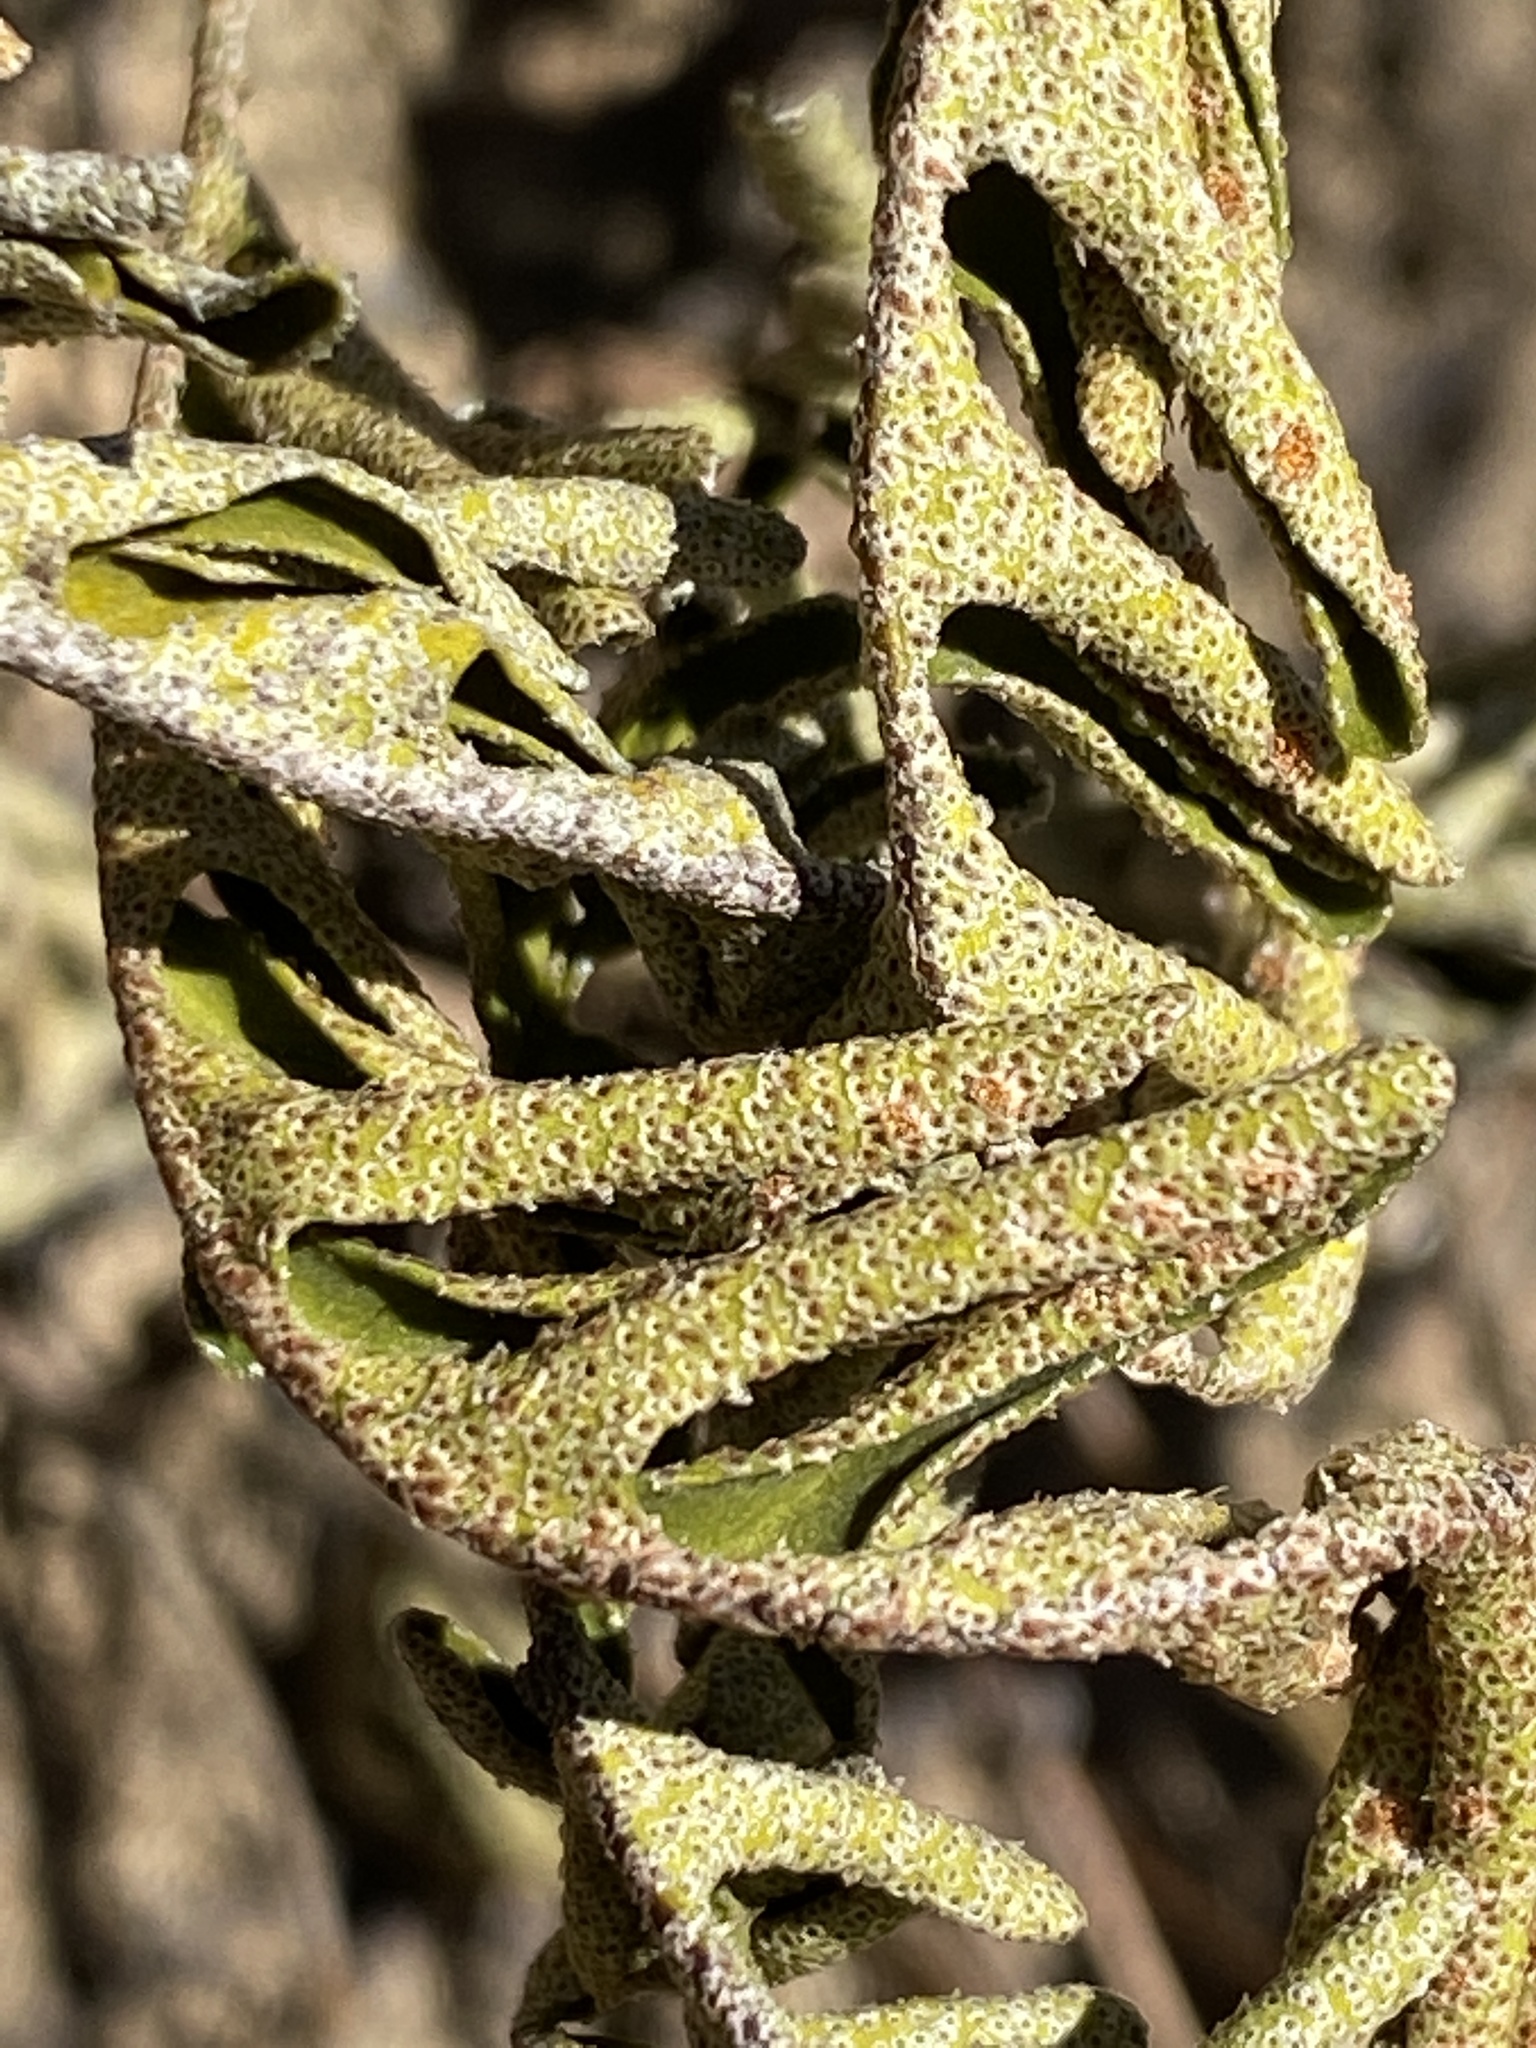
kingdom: Plantae
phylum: Tracheophyta
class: Polypodiopsida
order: Polypodiales
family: Polypodiaceae
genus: Pleopeltis
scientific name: Pleopeltis michauxiana
